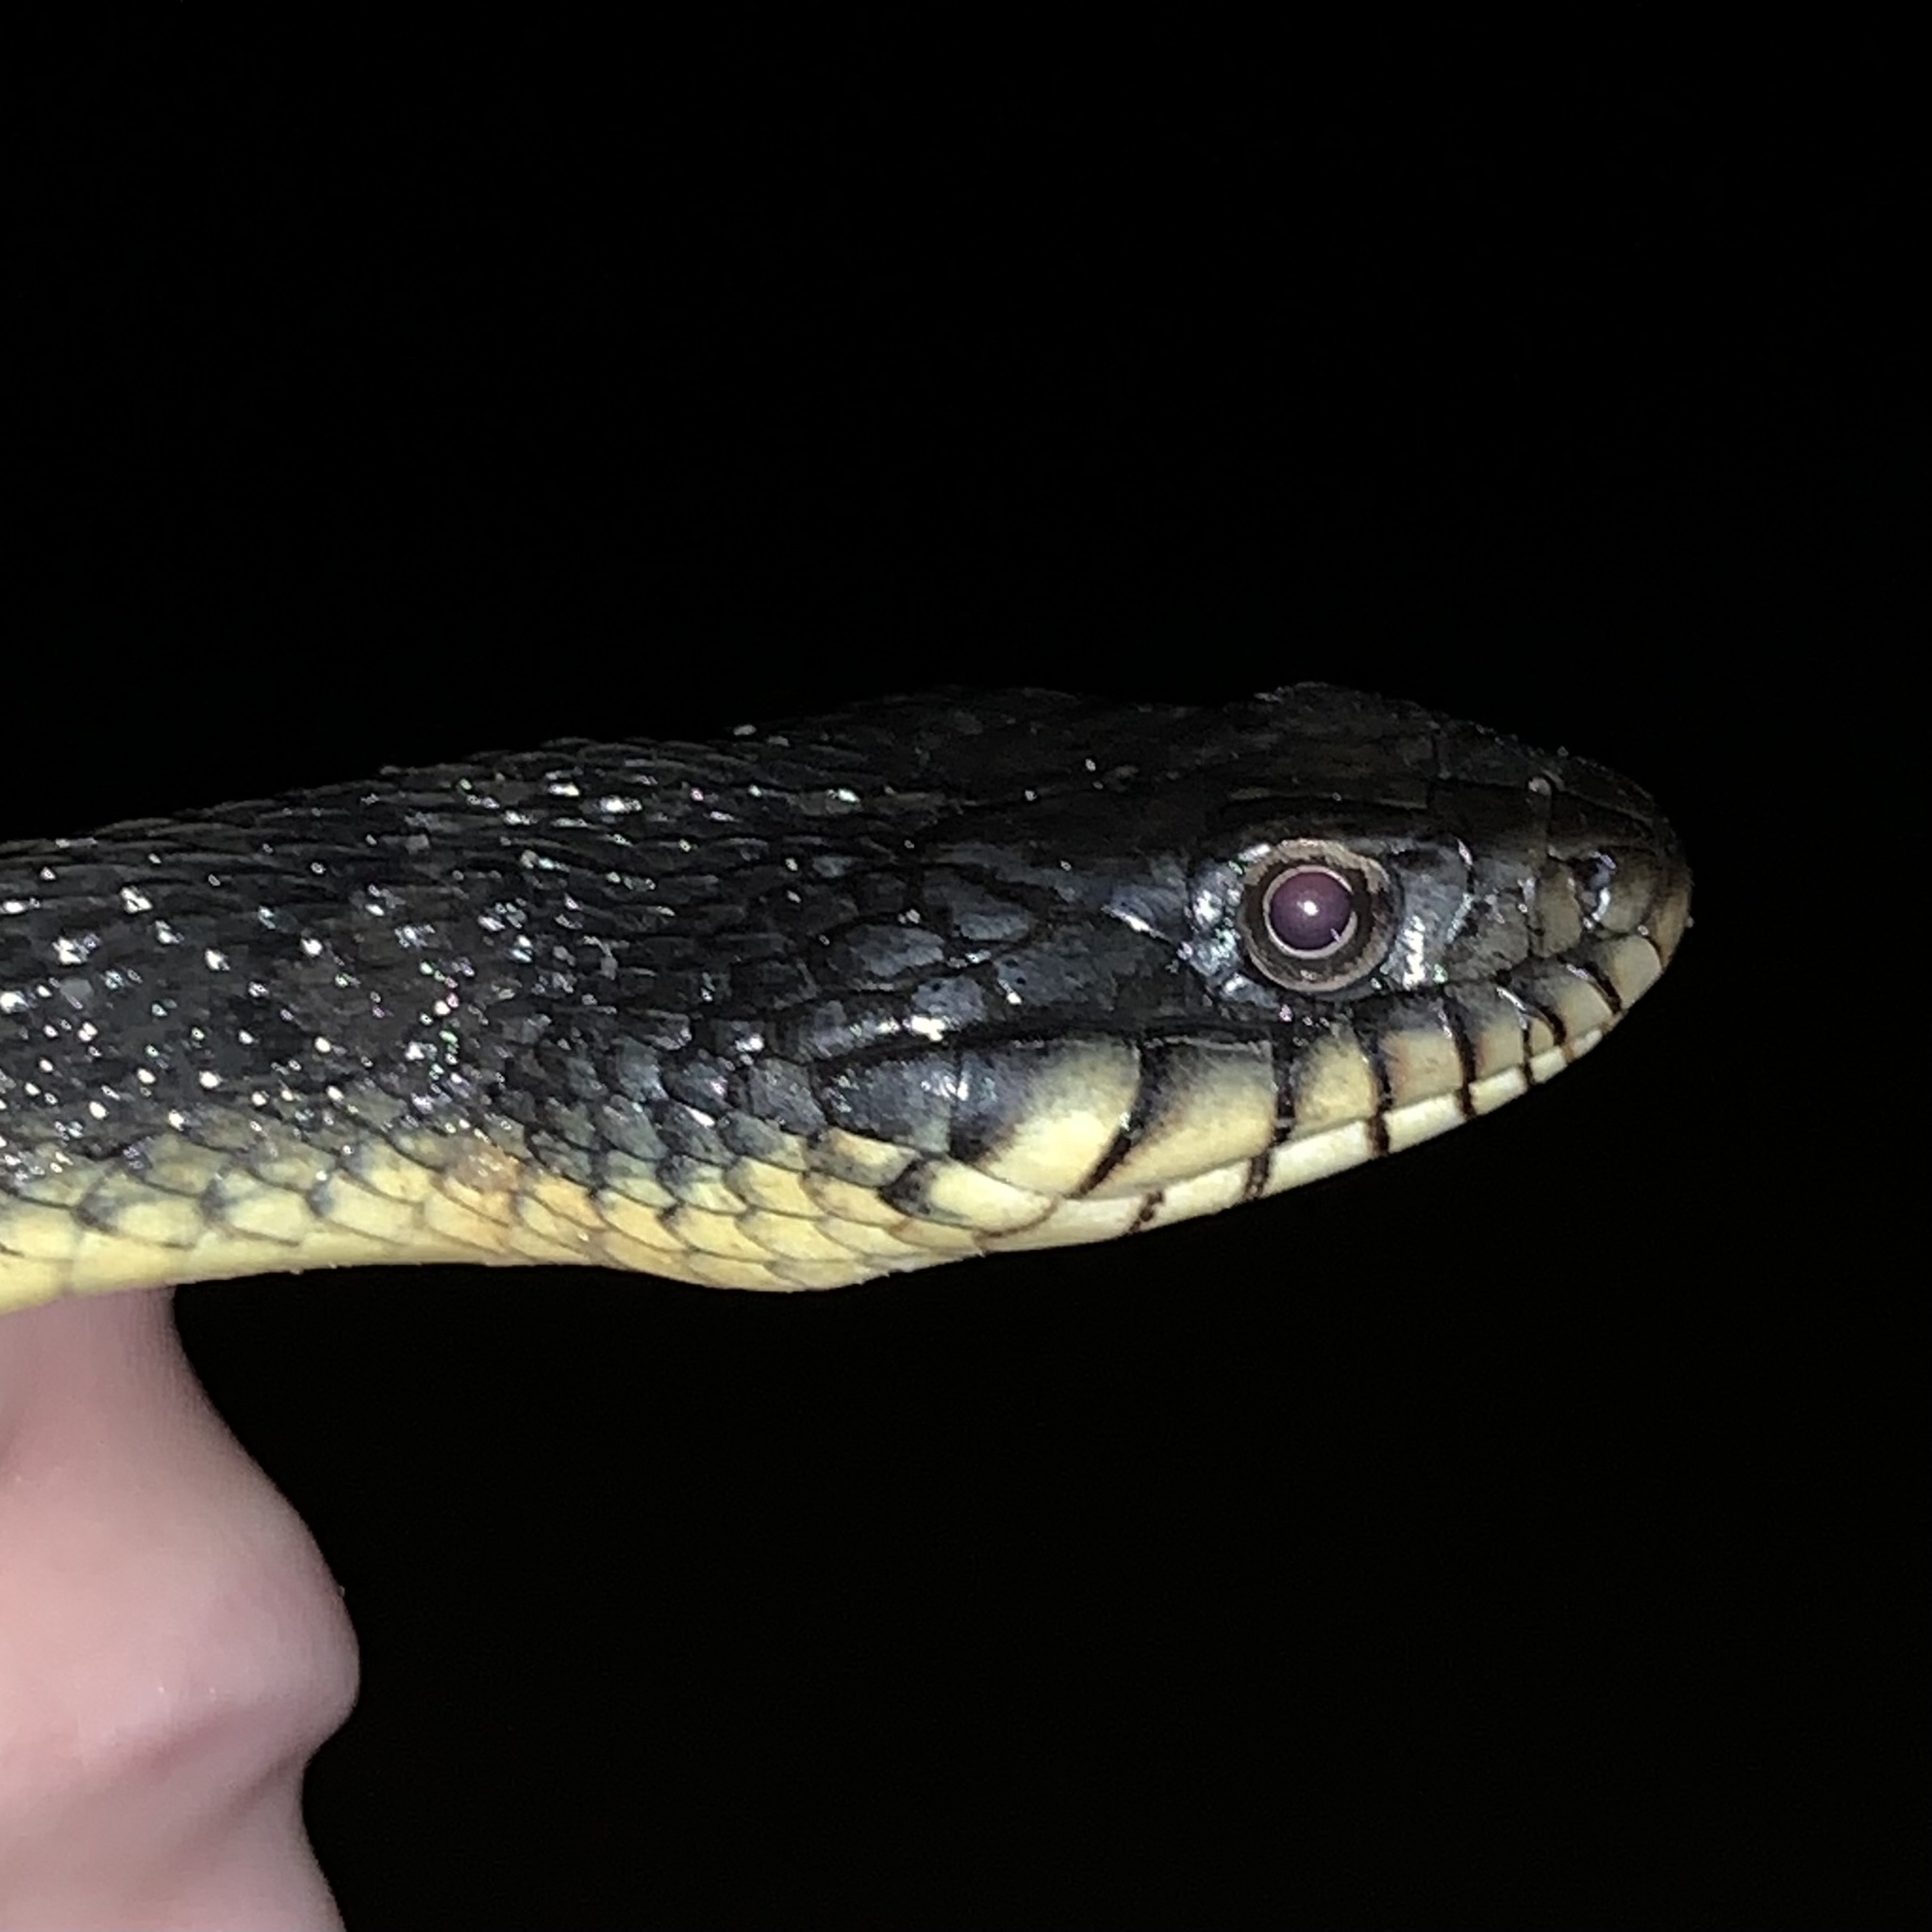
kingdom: Animalia
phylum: Chordata
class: Squamata
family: Colubridae
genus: Nerodia
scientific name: Nerodia erythrogaster
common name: Plainbelly water snake
